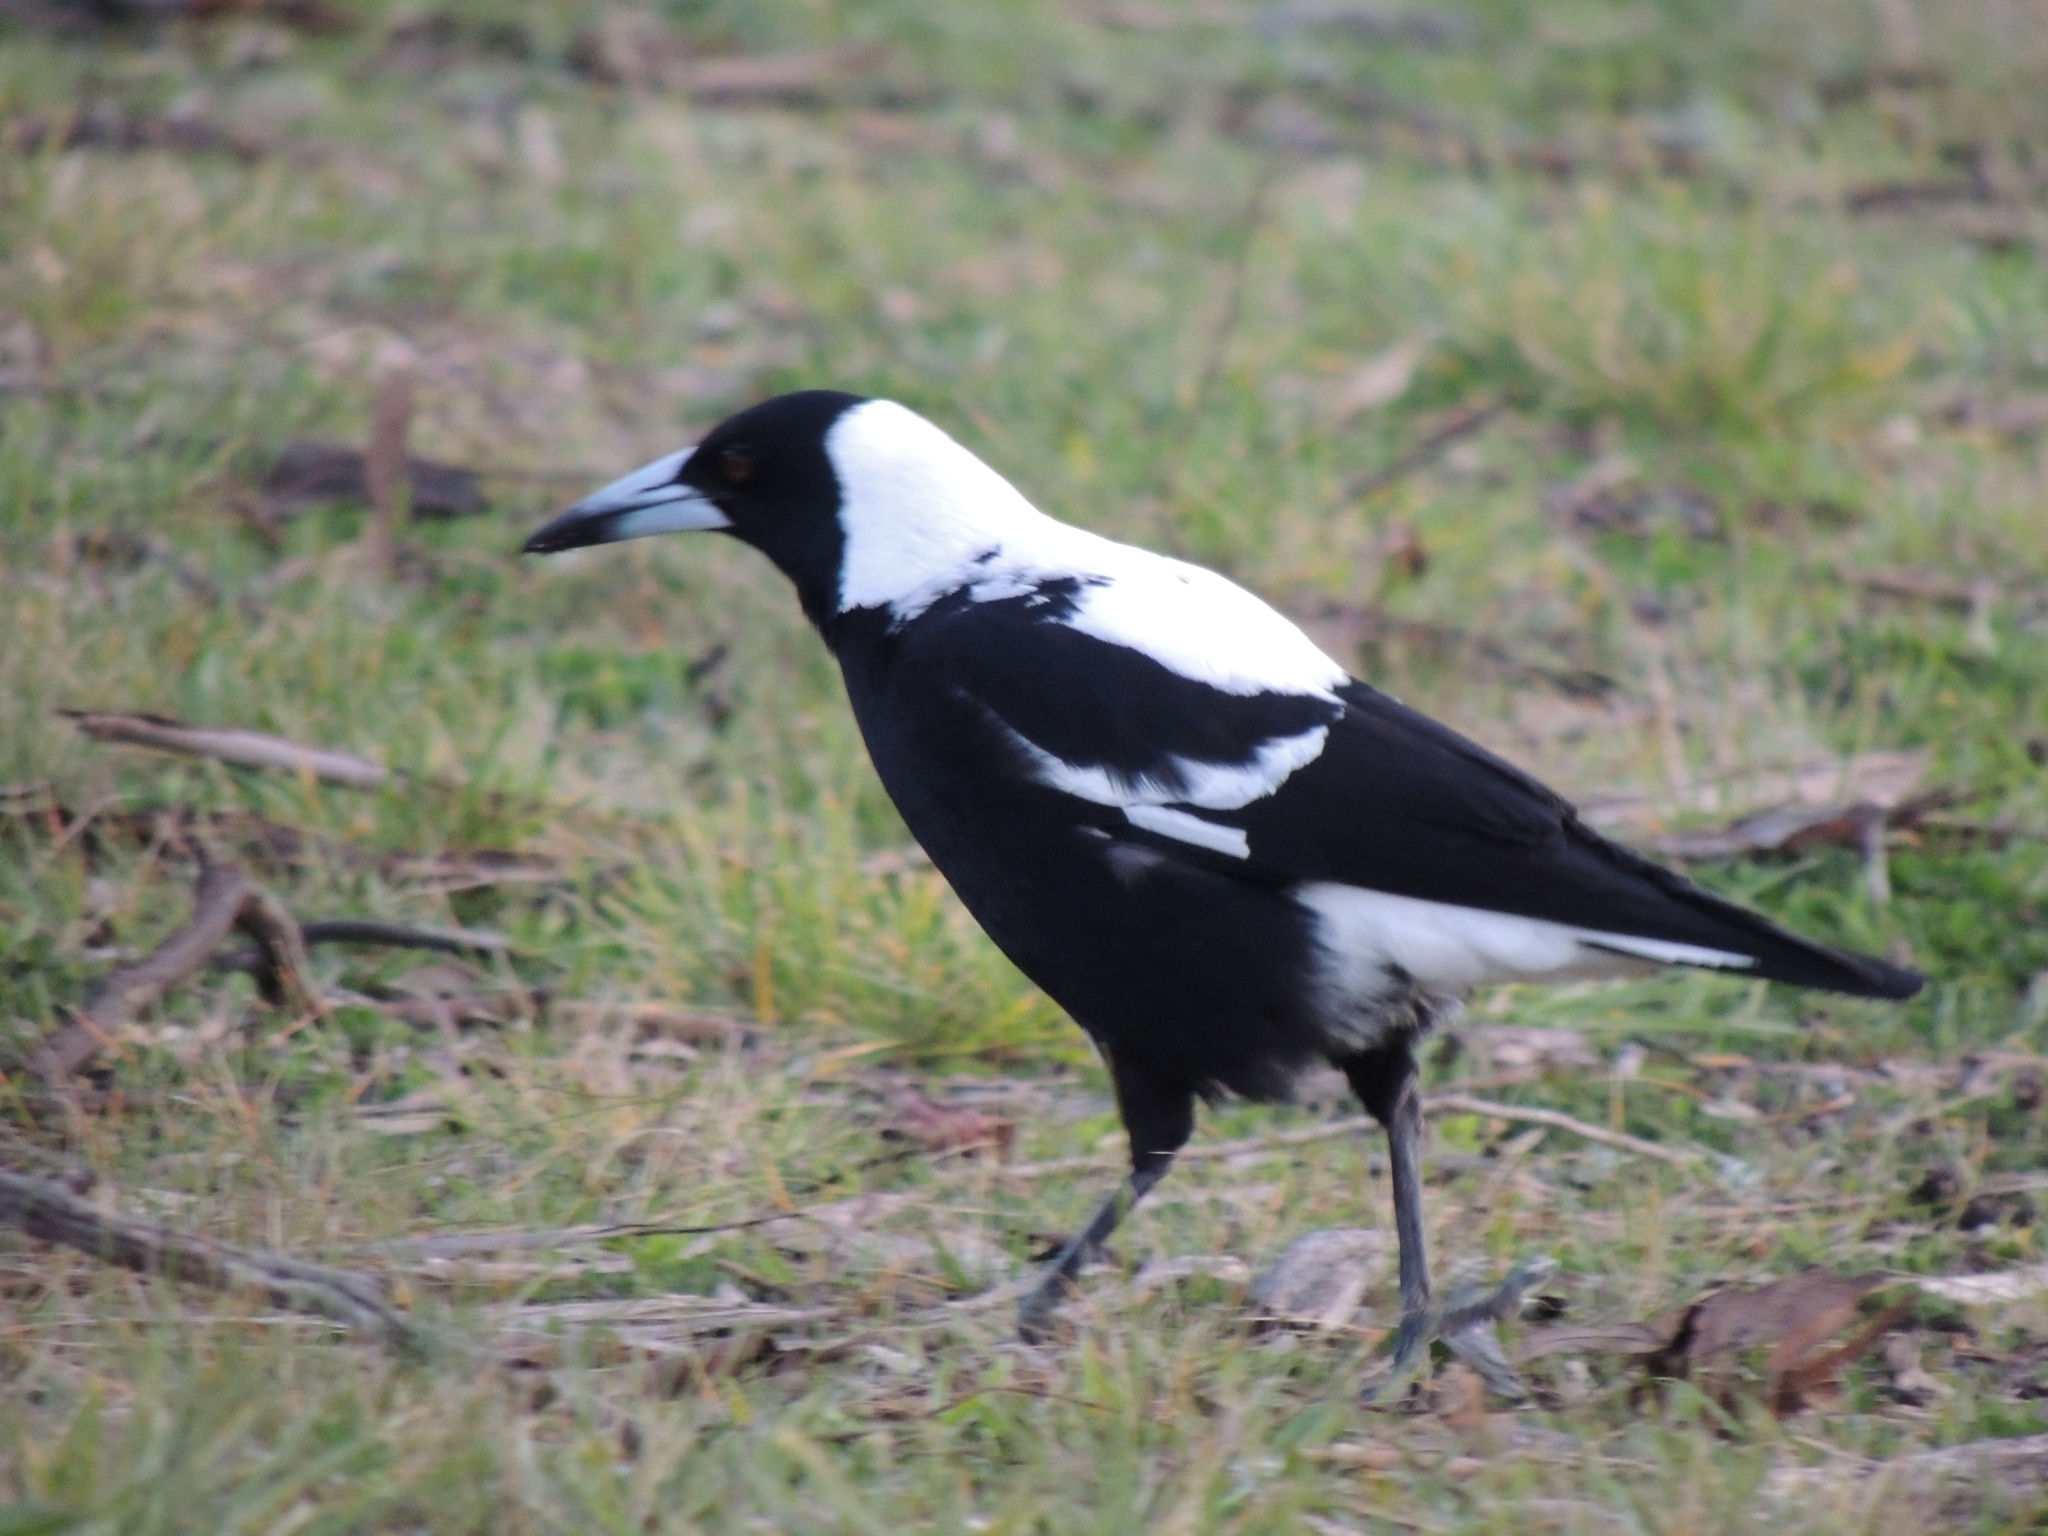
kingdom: Animalia
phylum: Chordata
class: Aves
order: Passeriformes
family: Cracticidae
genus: Gymnorhina
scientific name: Gymnorhina tibicen
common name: Australian magpie
